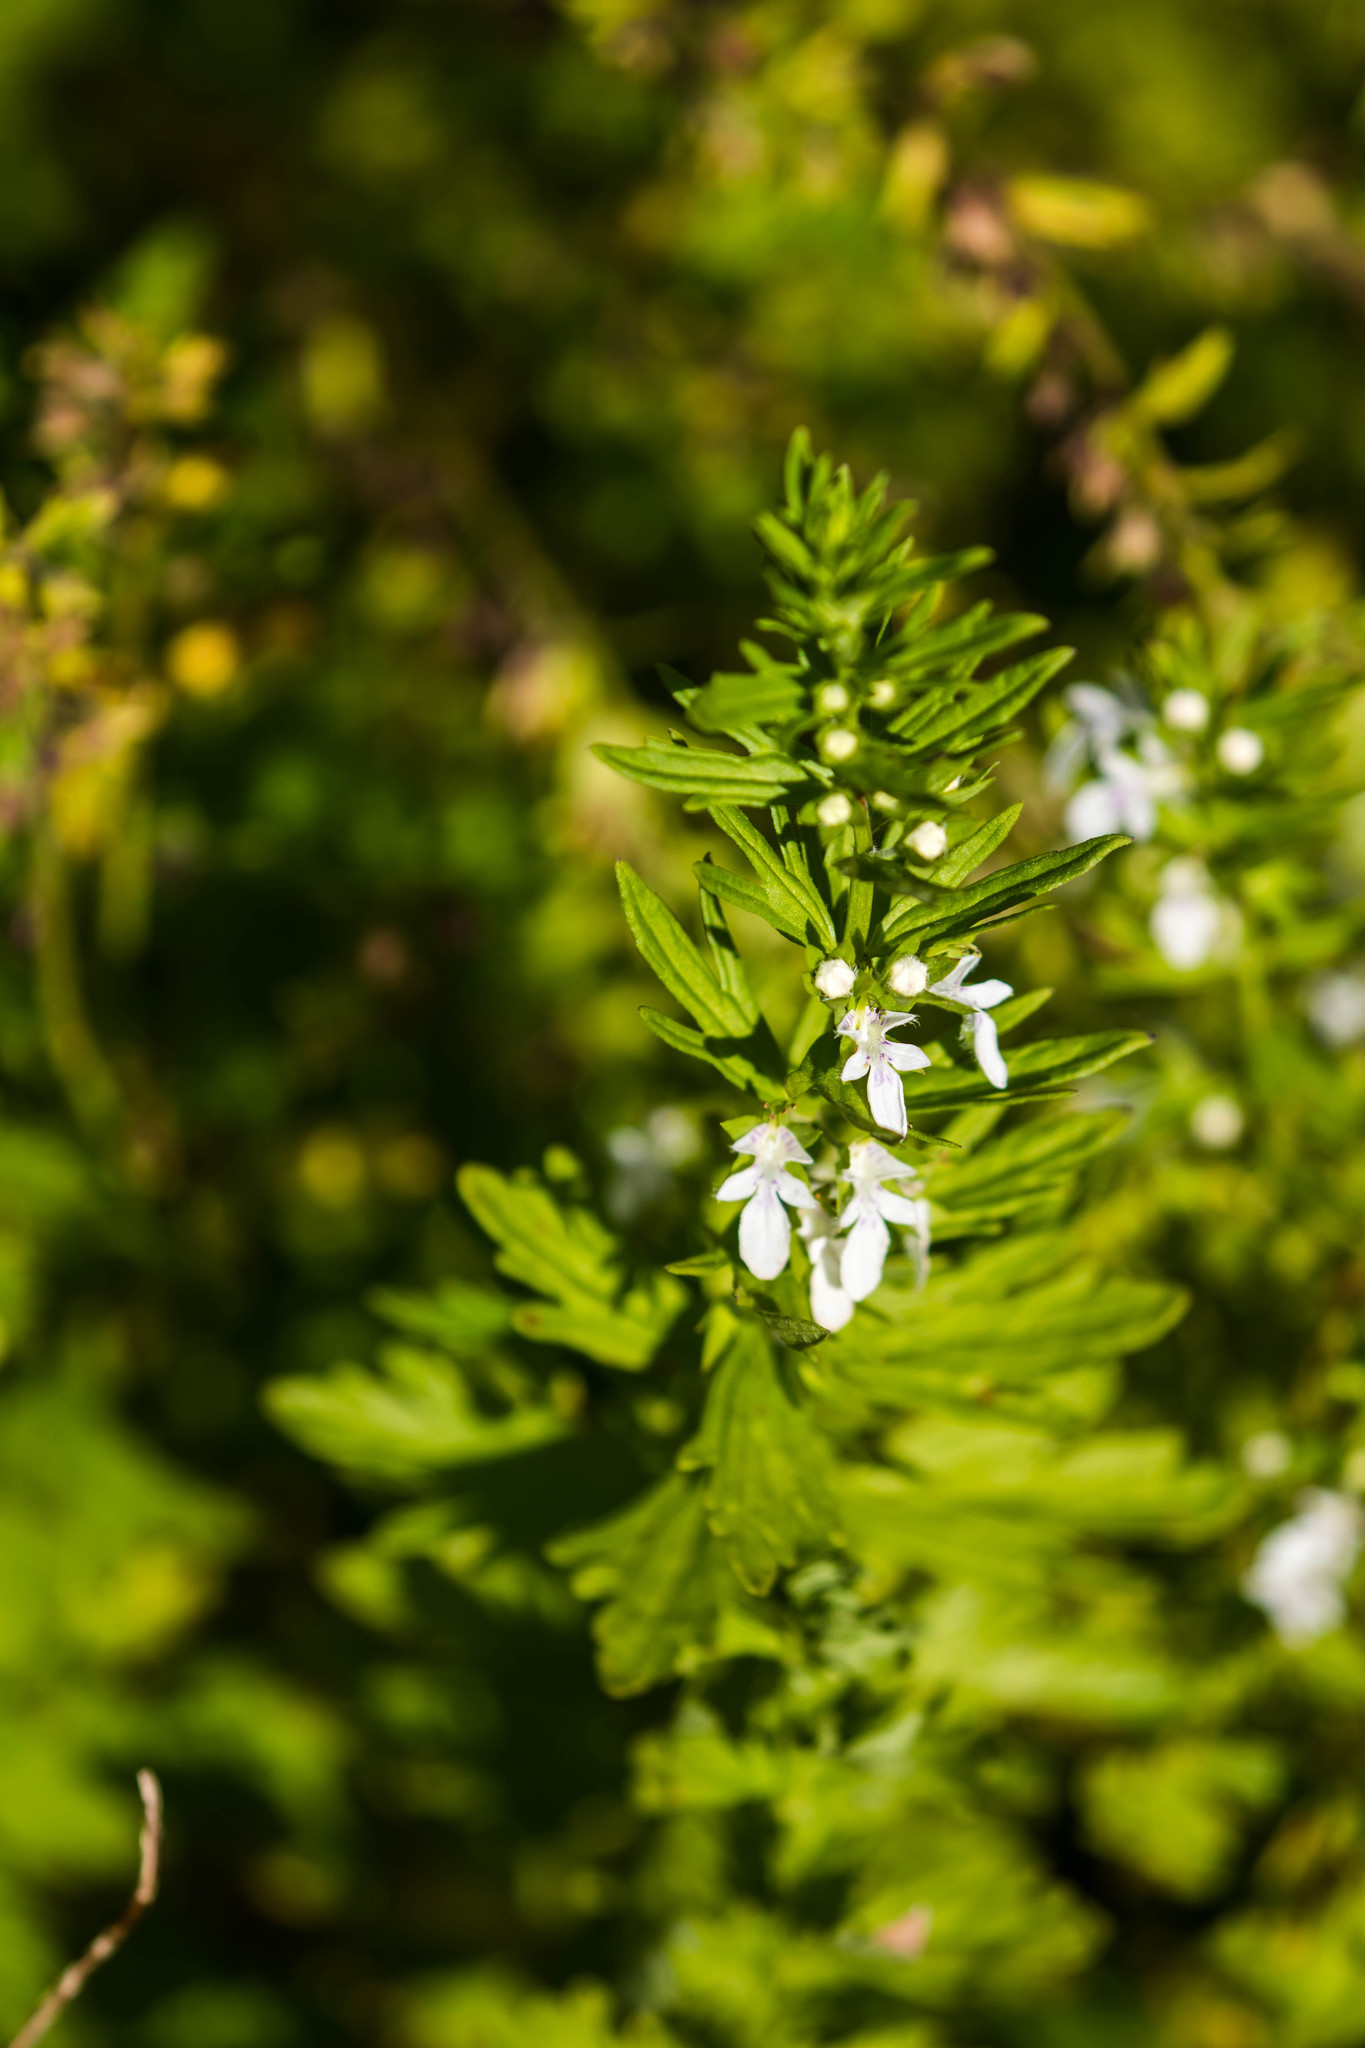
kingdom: Plantae
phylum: Tracheophyta
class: Magnoliopsida
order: Lamiales
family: Lamiaceae
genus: Teucrium
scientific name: Teucrium cubense
